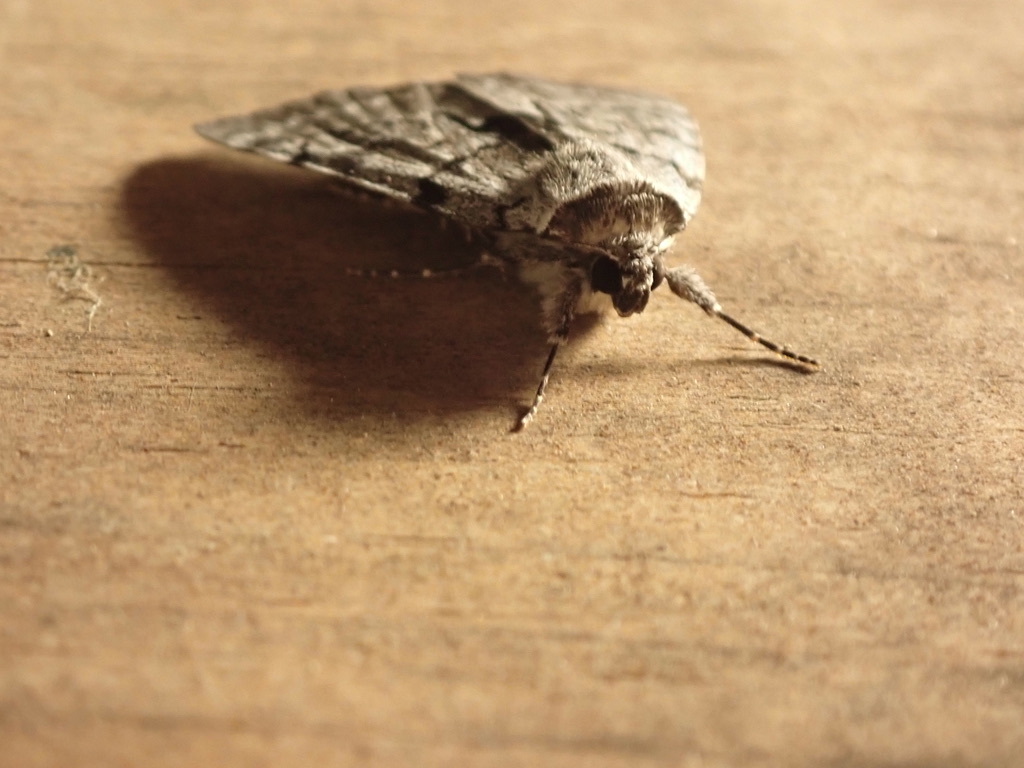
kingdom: Animalia
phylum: Arthropoda
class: Insecta
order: Lepidoptera
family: Erebidae
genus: Catocala
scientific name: Catocala sordida
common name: Sordid underwing
